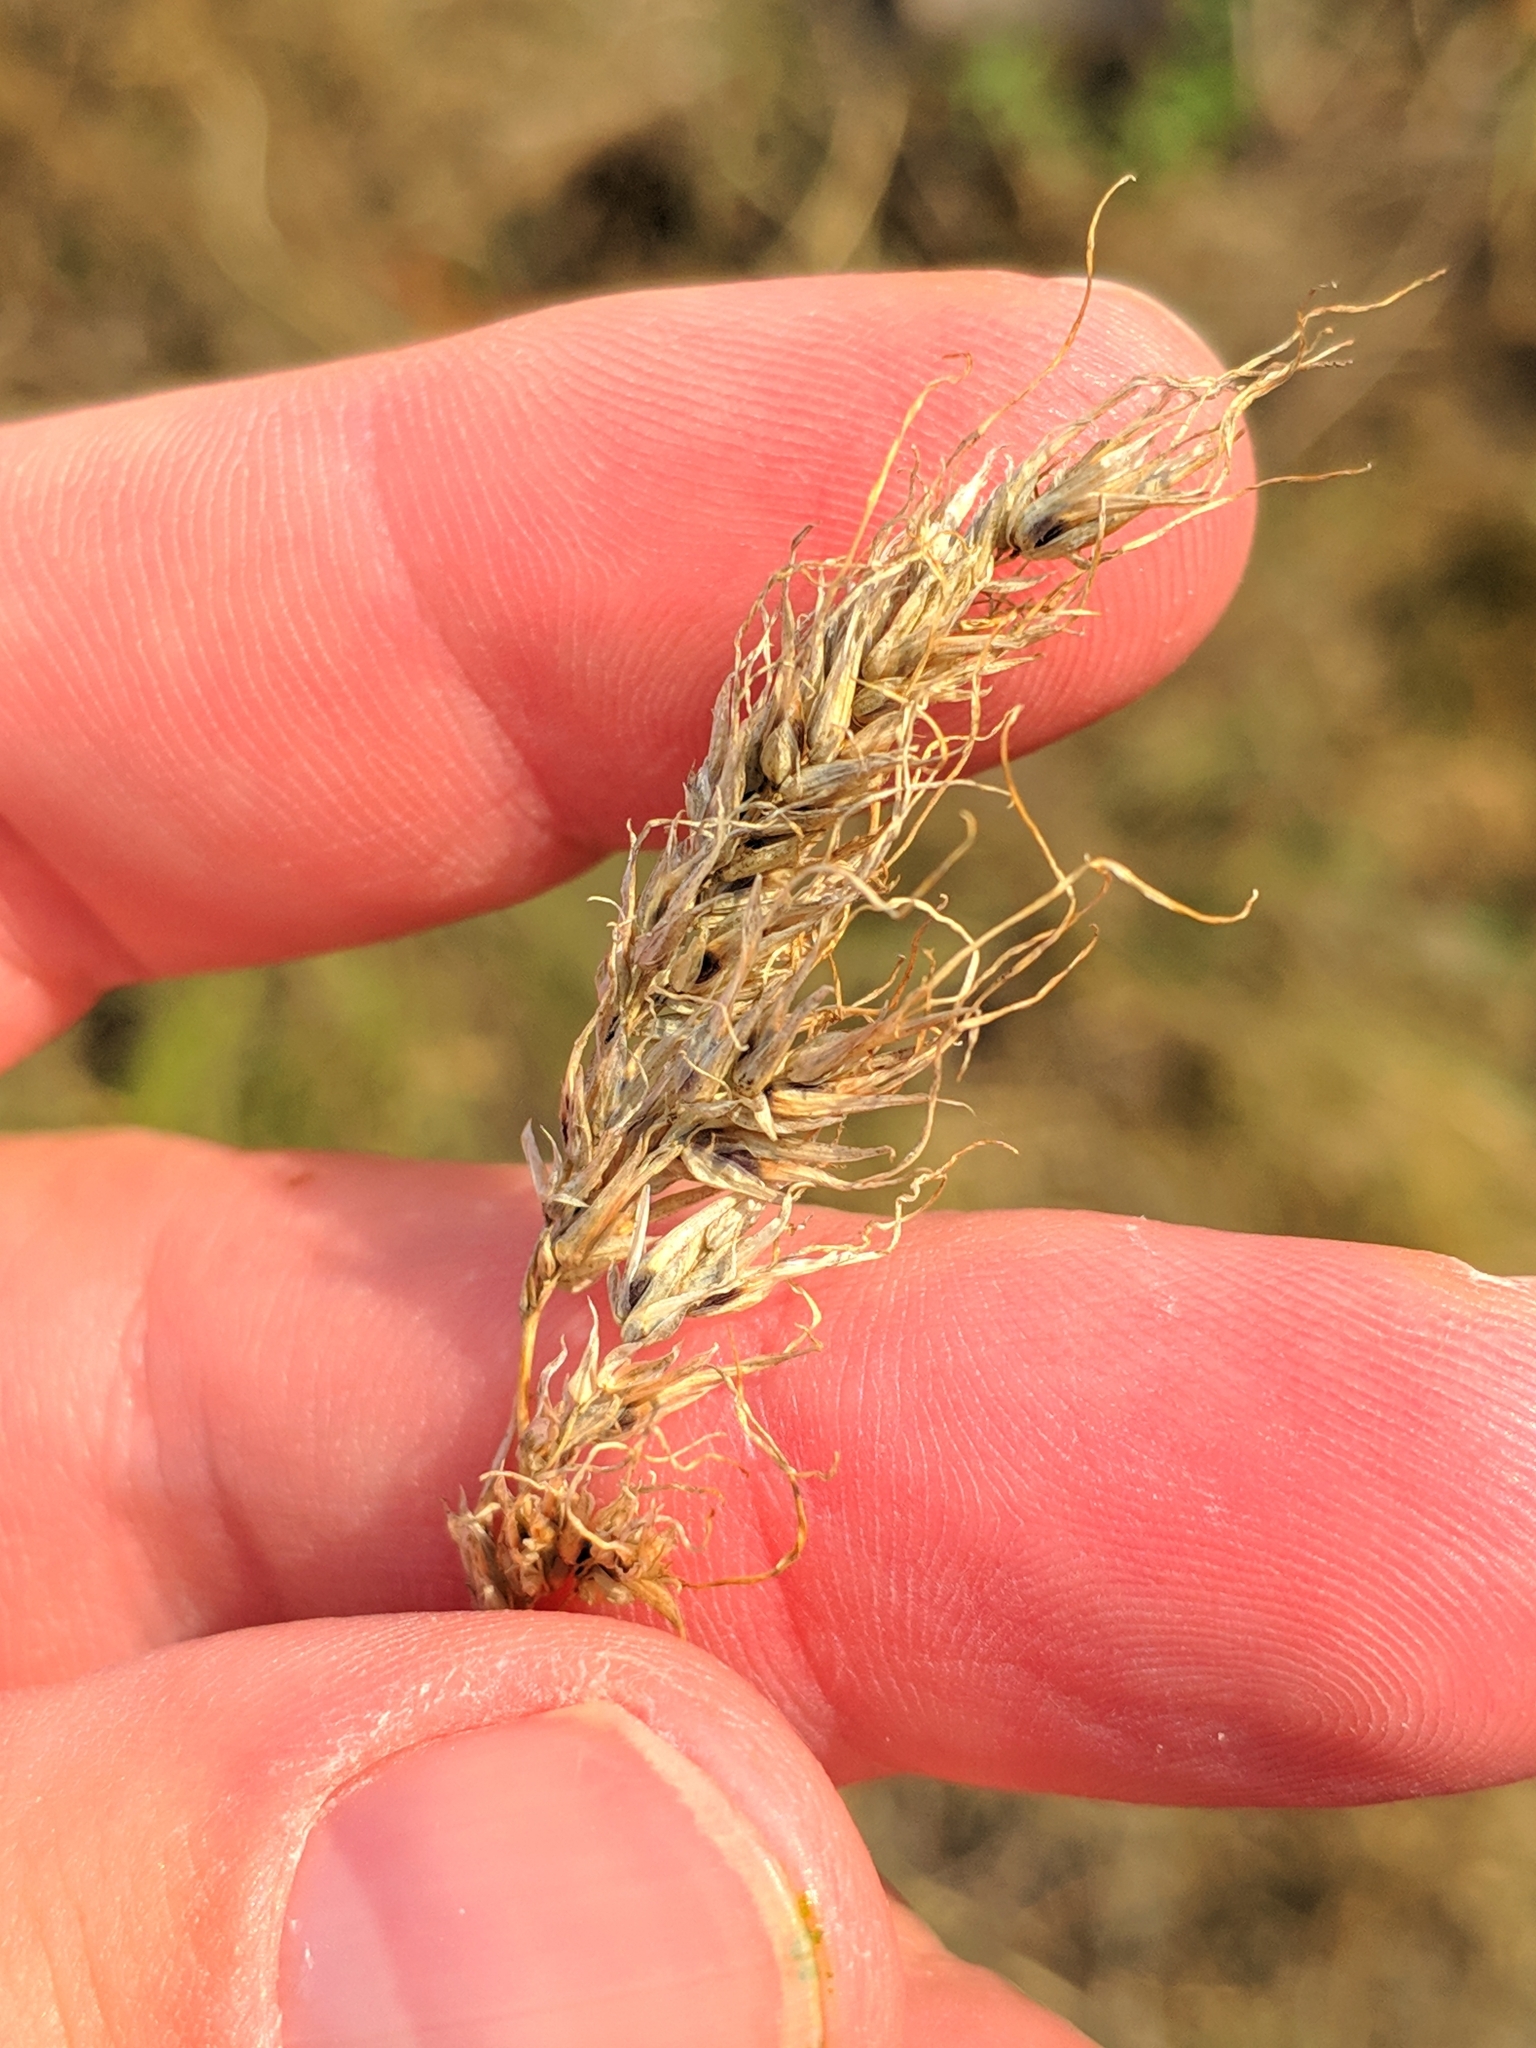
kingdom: Plantae
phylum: Tracheophyta
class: Liliopsida
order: Poales
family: Poaceae
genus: Poa
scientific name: Poa bulbosa
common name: Bulbous bluegrass
